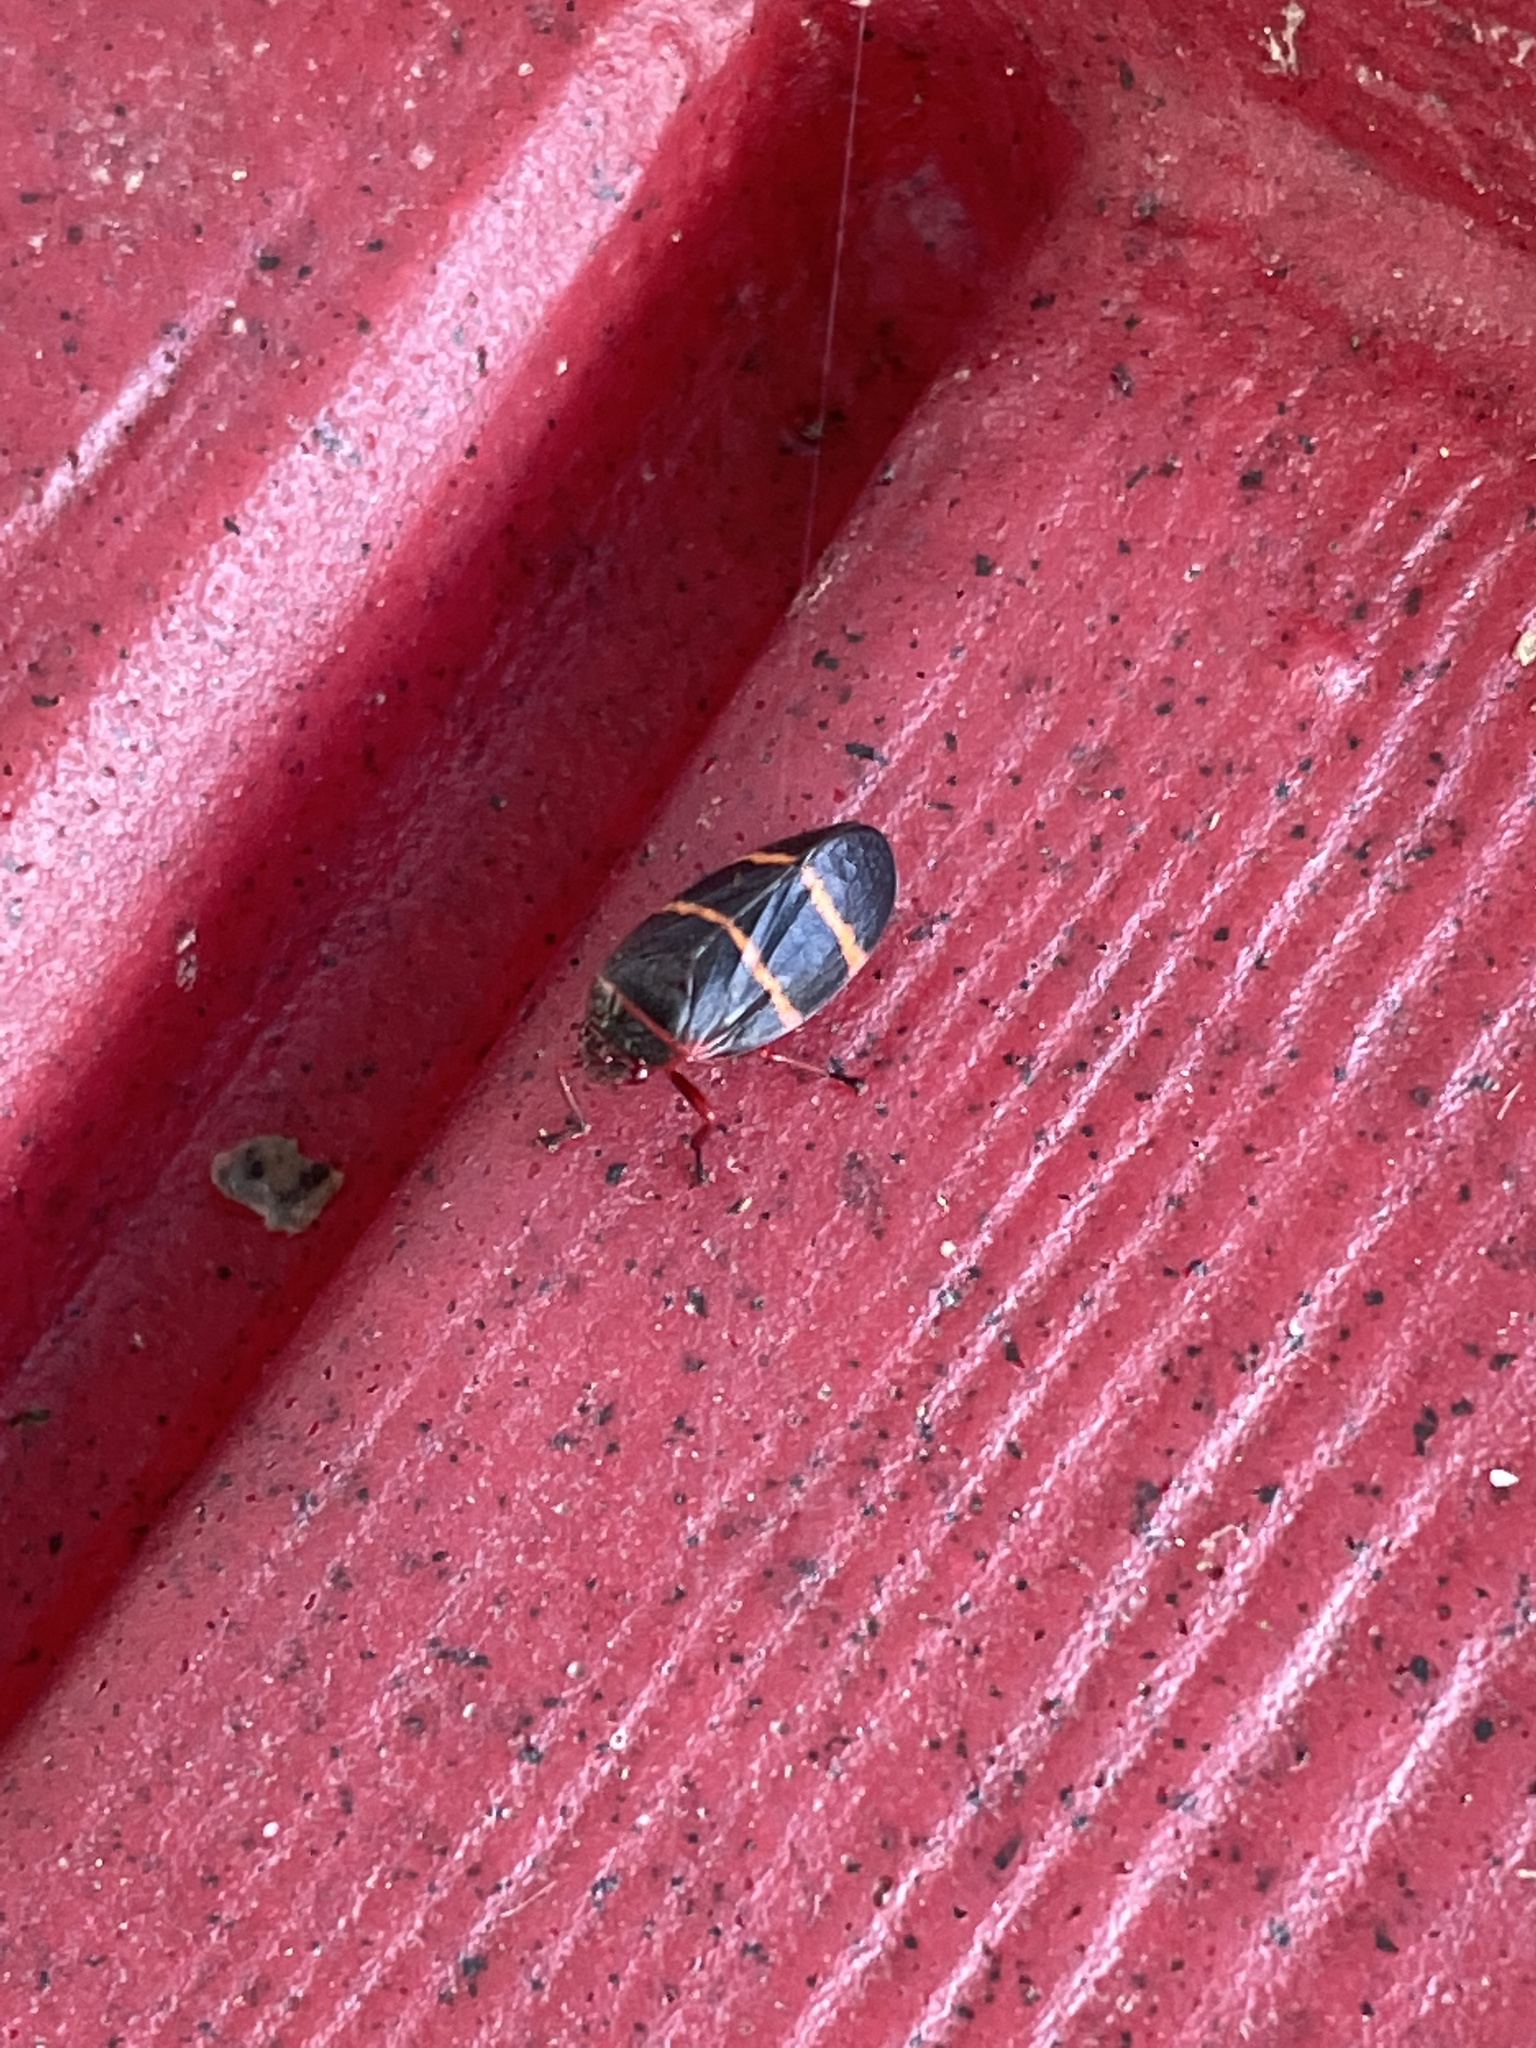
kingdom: Animalia
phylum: Arthropoda
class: Insecta
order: Hemiptera
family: Cercopidae
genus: Prosapia
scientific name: Prosapia bicincta
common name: Twolined spittlebug
